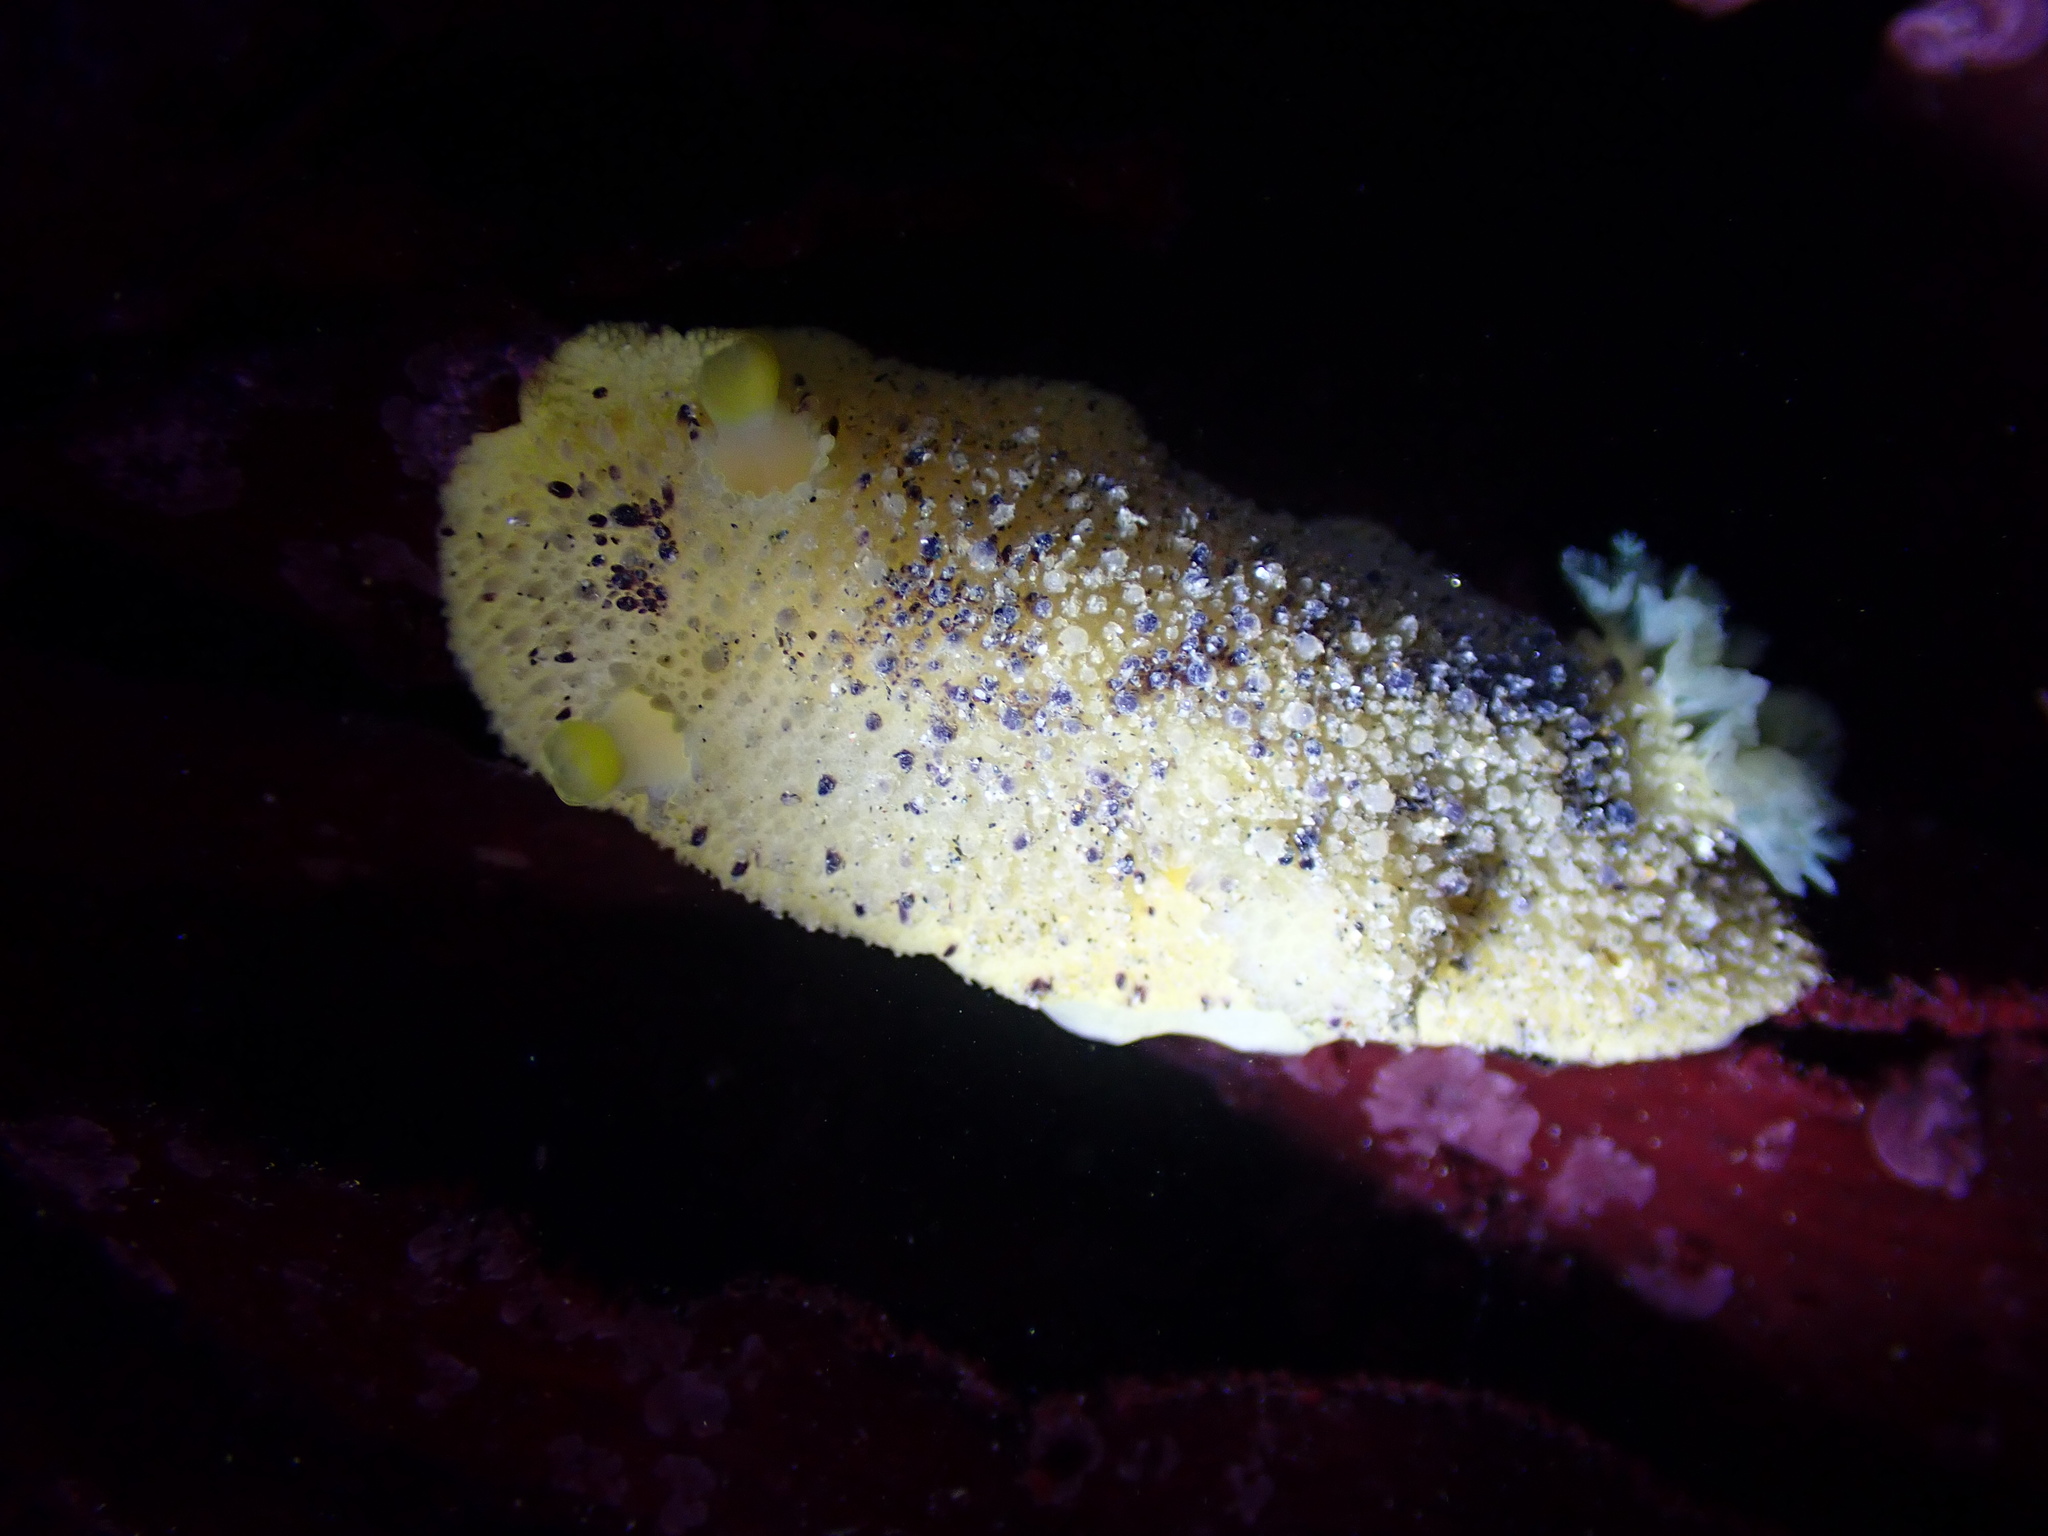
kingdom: Animalia
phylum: Mollusca
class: Gastropoda
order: Nudibranchia
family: Dorididae
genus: Doris
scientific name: Doris montereyensis
